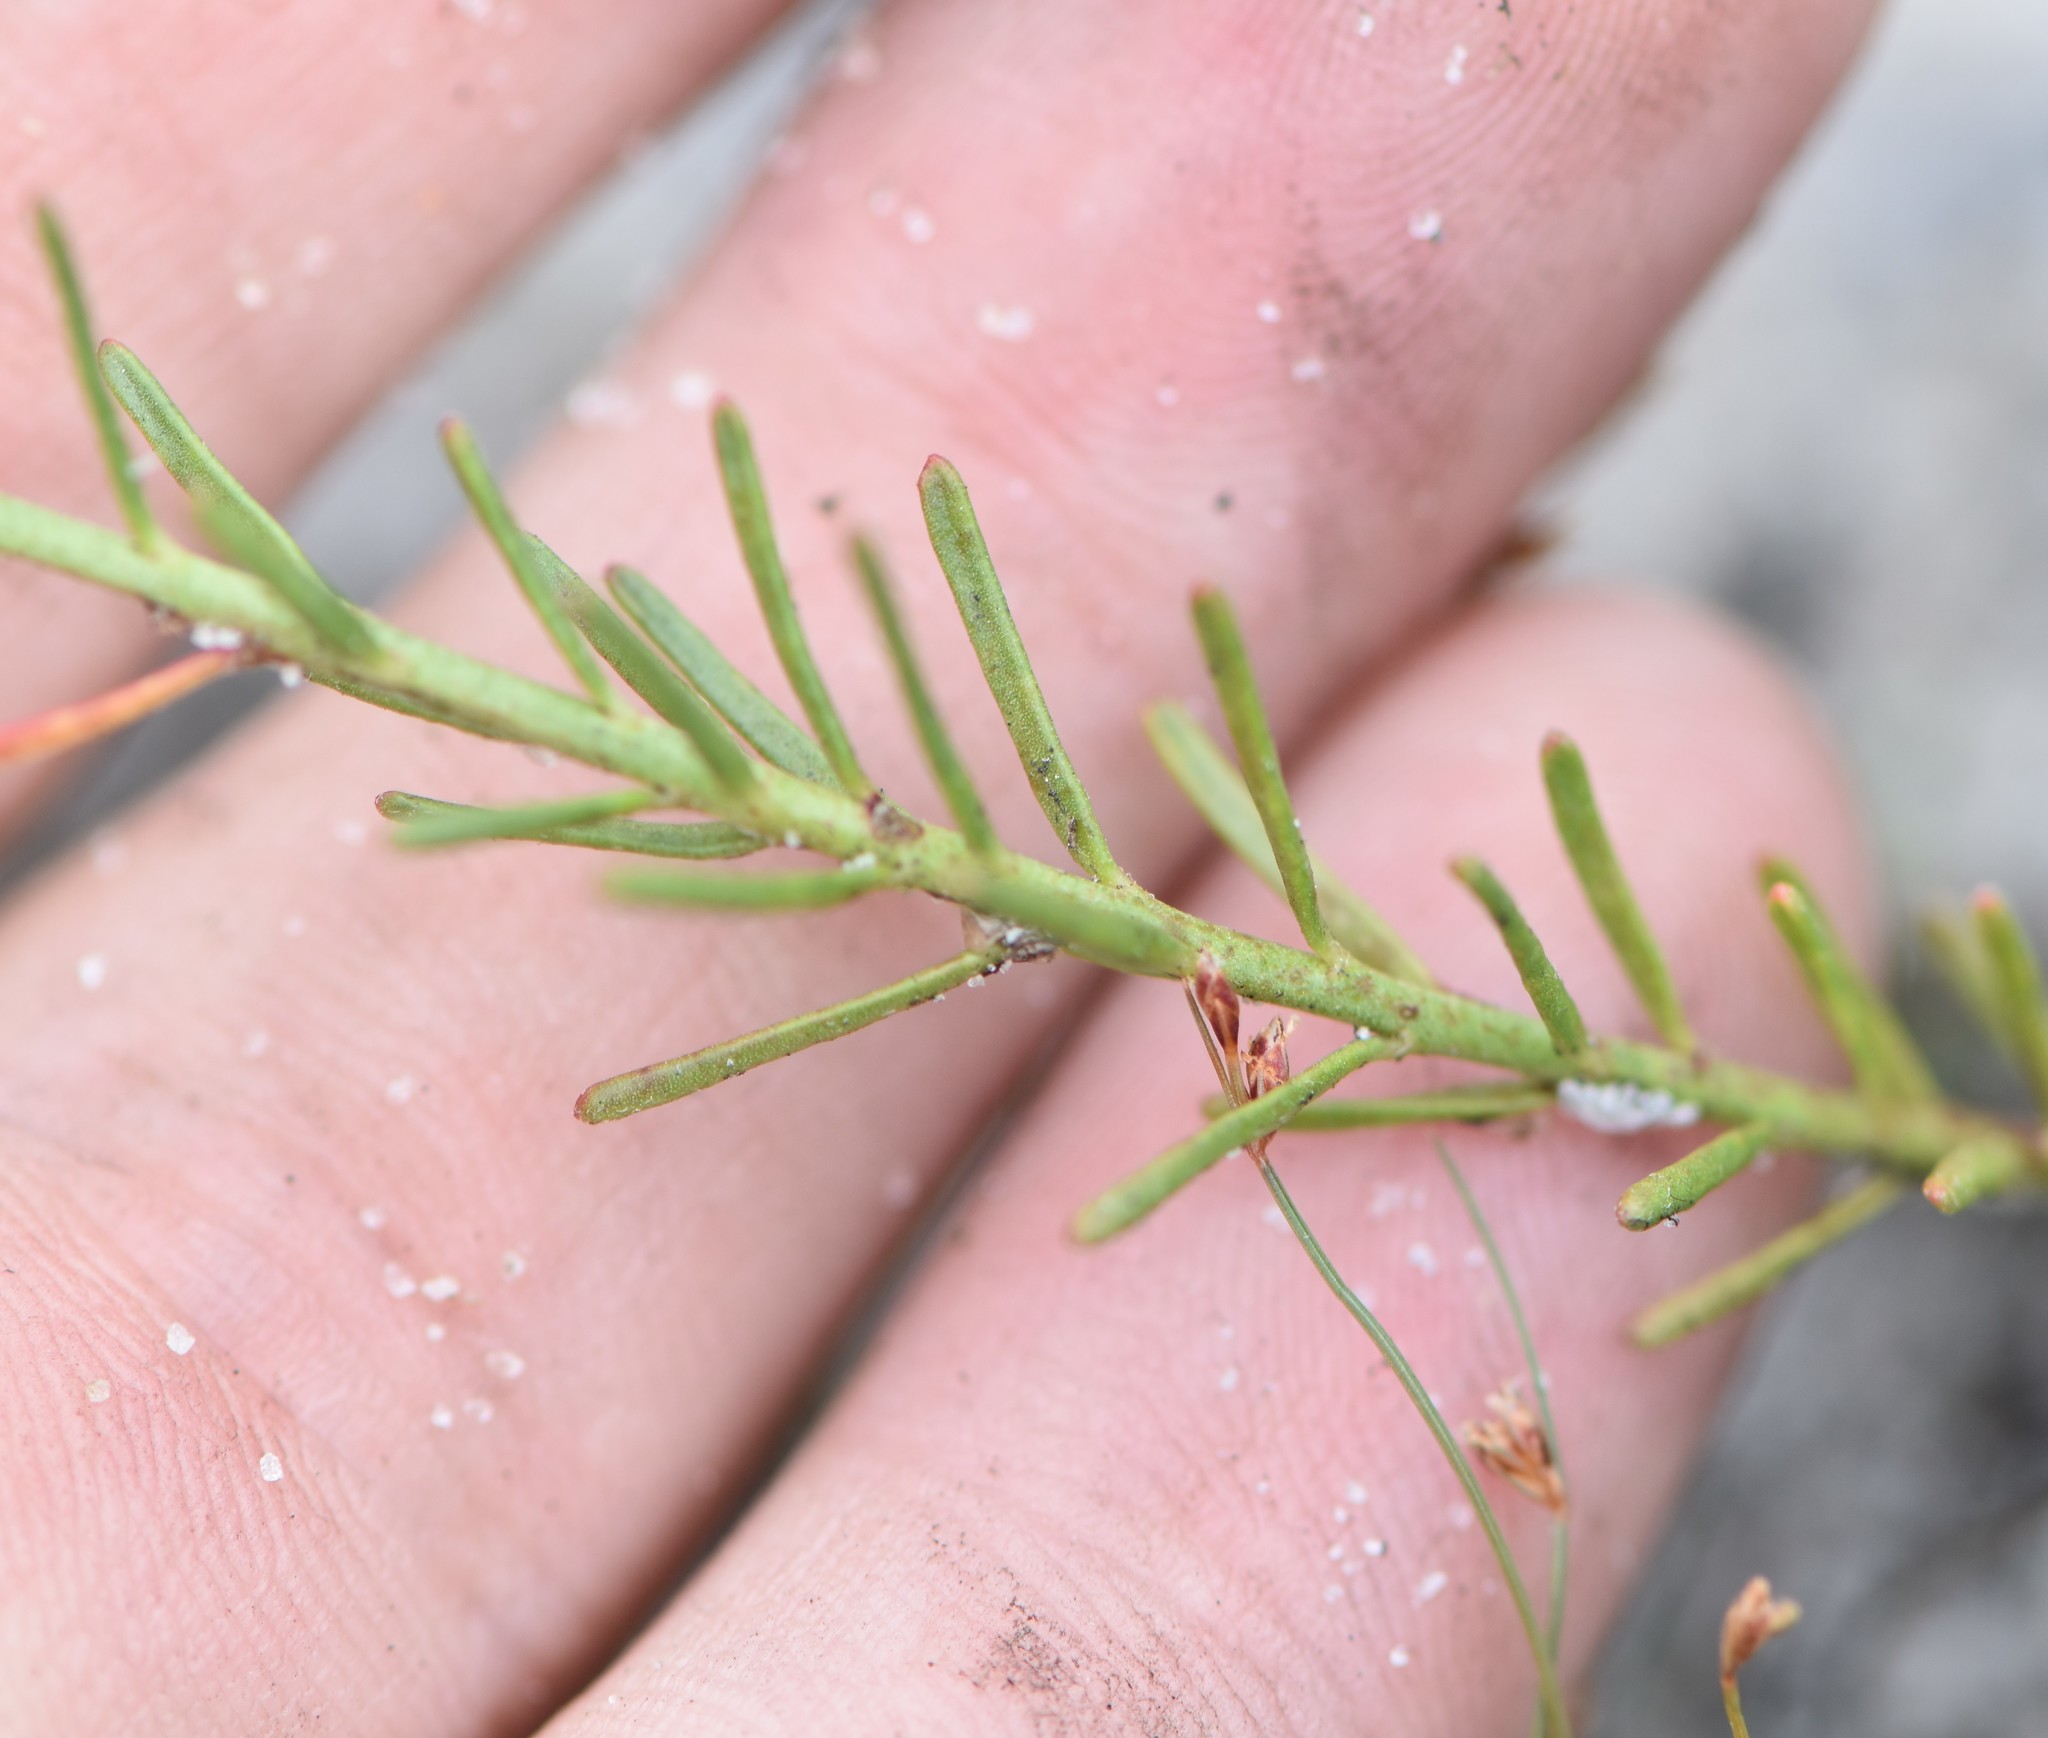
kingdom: Plantae
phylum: Tracheophyta
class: Magnoliopsida
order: Malpighiales
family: Euphorbiaceae
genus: Euphorbia
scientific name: Euphorbia polyphylla
